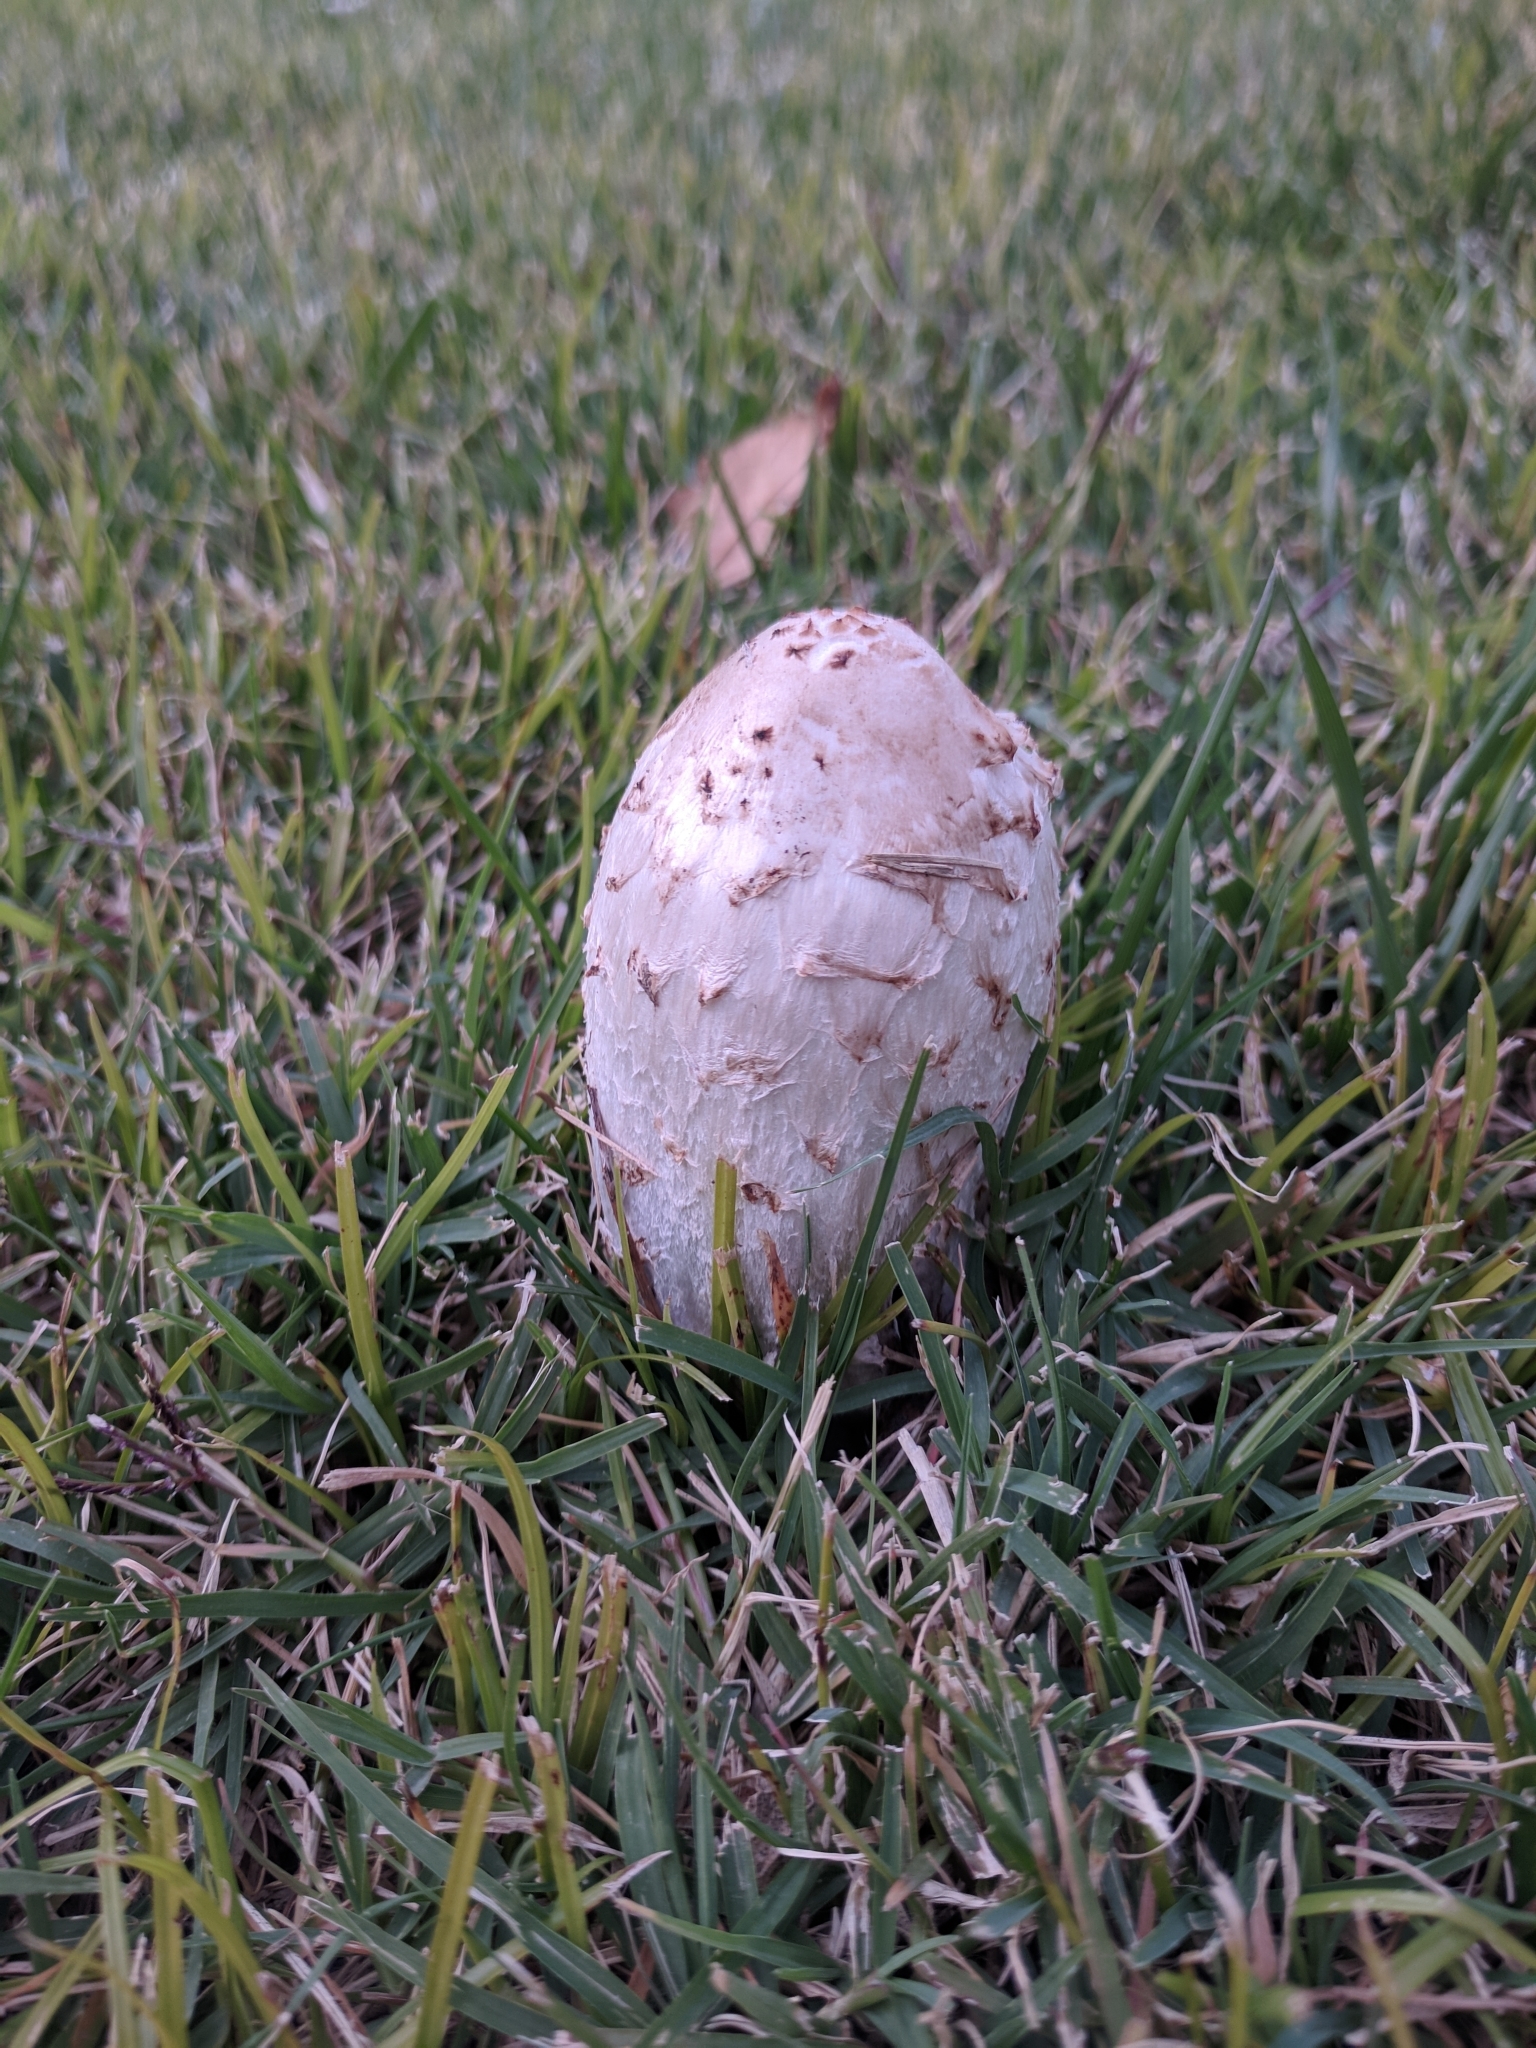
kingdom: Fungi
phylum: Basidiomycota
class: Agaricomycetes
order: Agaricales
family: Agaricaceae
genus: Coprinus
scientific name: Coprinus comatus
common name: Lawyer's wig
